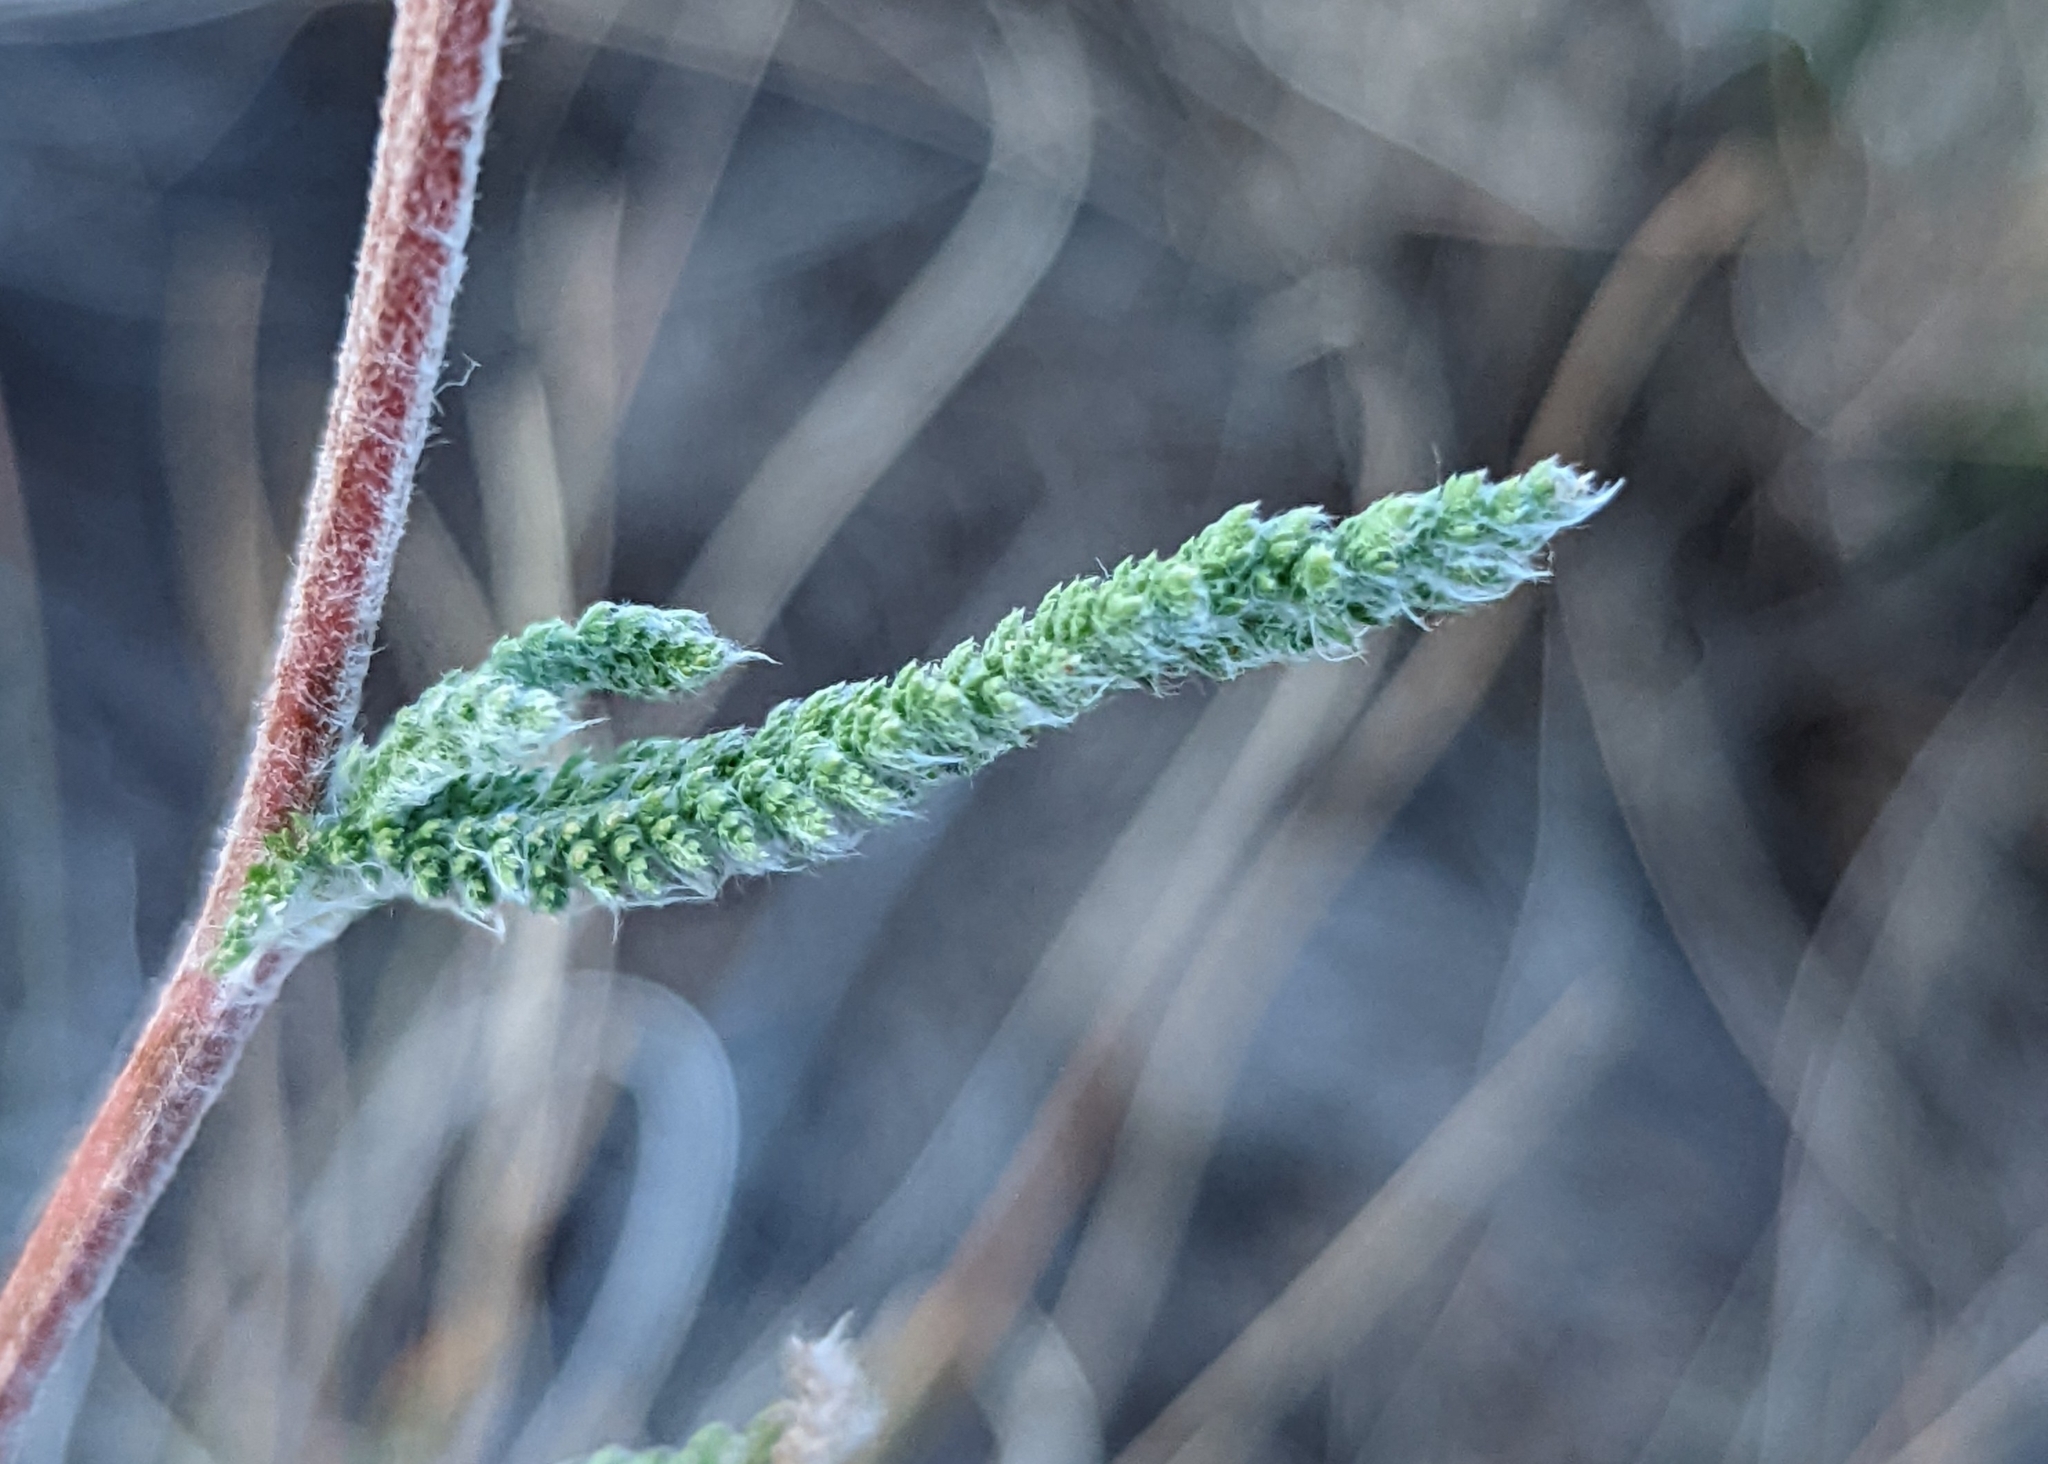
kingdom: Plantae
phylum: Tracheophyta
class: Magnoliopsida
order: Asterales
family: Asteraceae
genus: Achillea
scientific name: Achillea millefolium
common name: Yarrow
